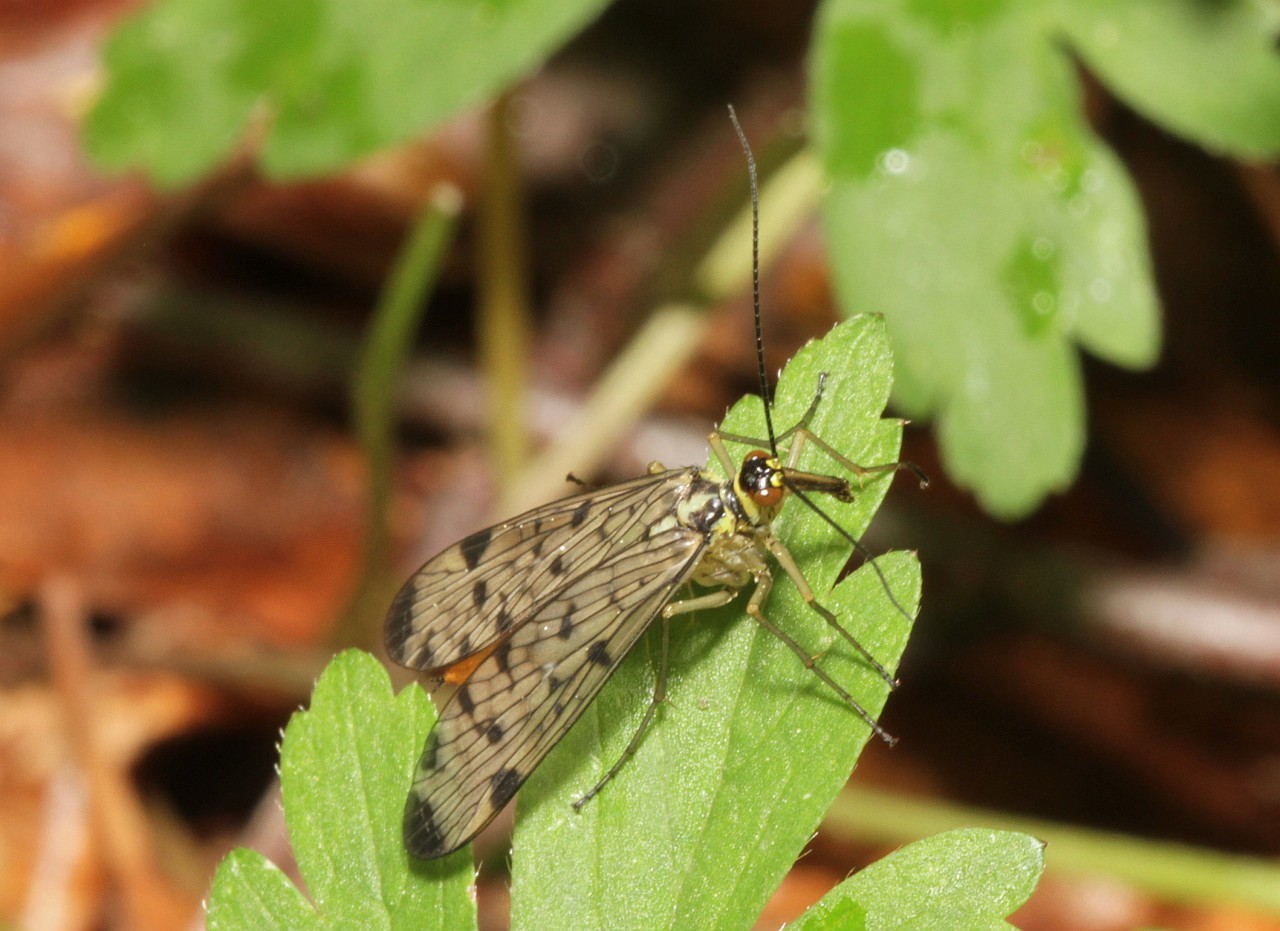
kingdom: Animalia
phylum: Arthropoda
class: Insecta
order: Mecoptera
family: Panorpidae
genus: Panorpa
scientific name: Panorpa germanica
